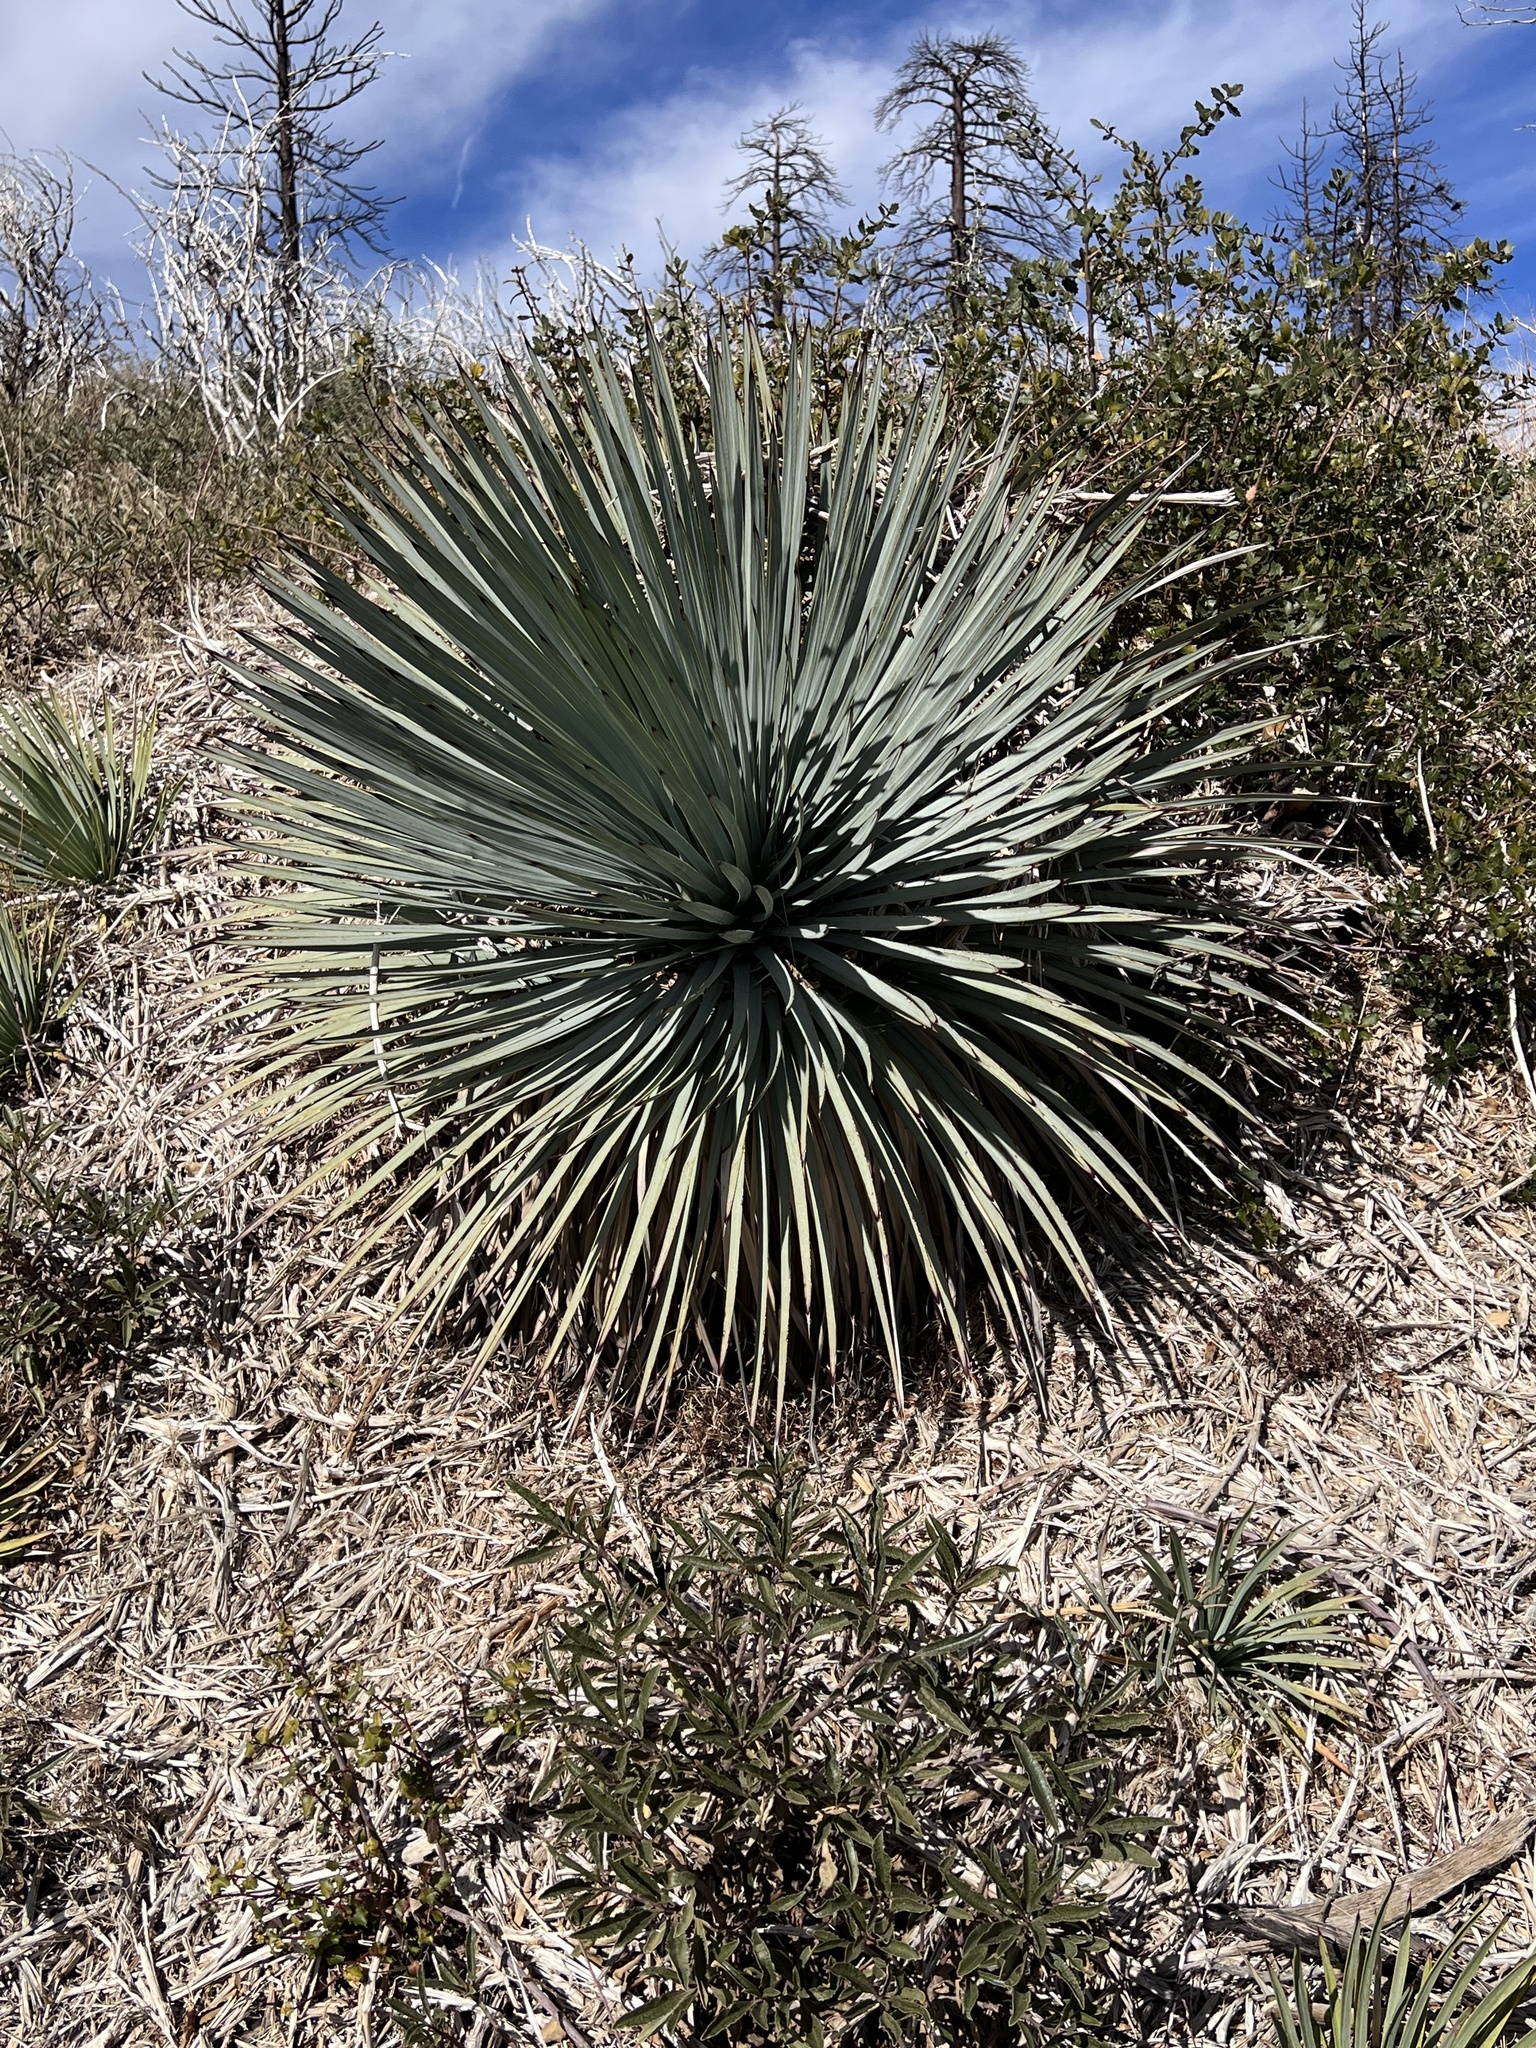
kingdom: Plantae
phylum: Tracheophyta
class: Liliopsida
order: Asparagales
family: Asparagaceae
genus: Hesperoyucca
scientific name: Hesperoyucca whipplei
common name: Our lord's-candle
